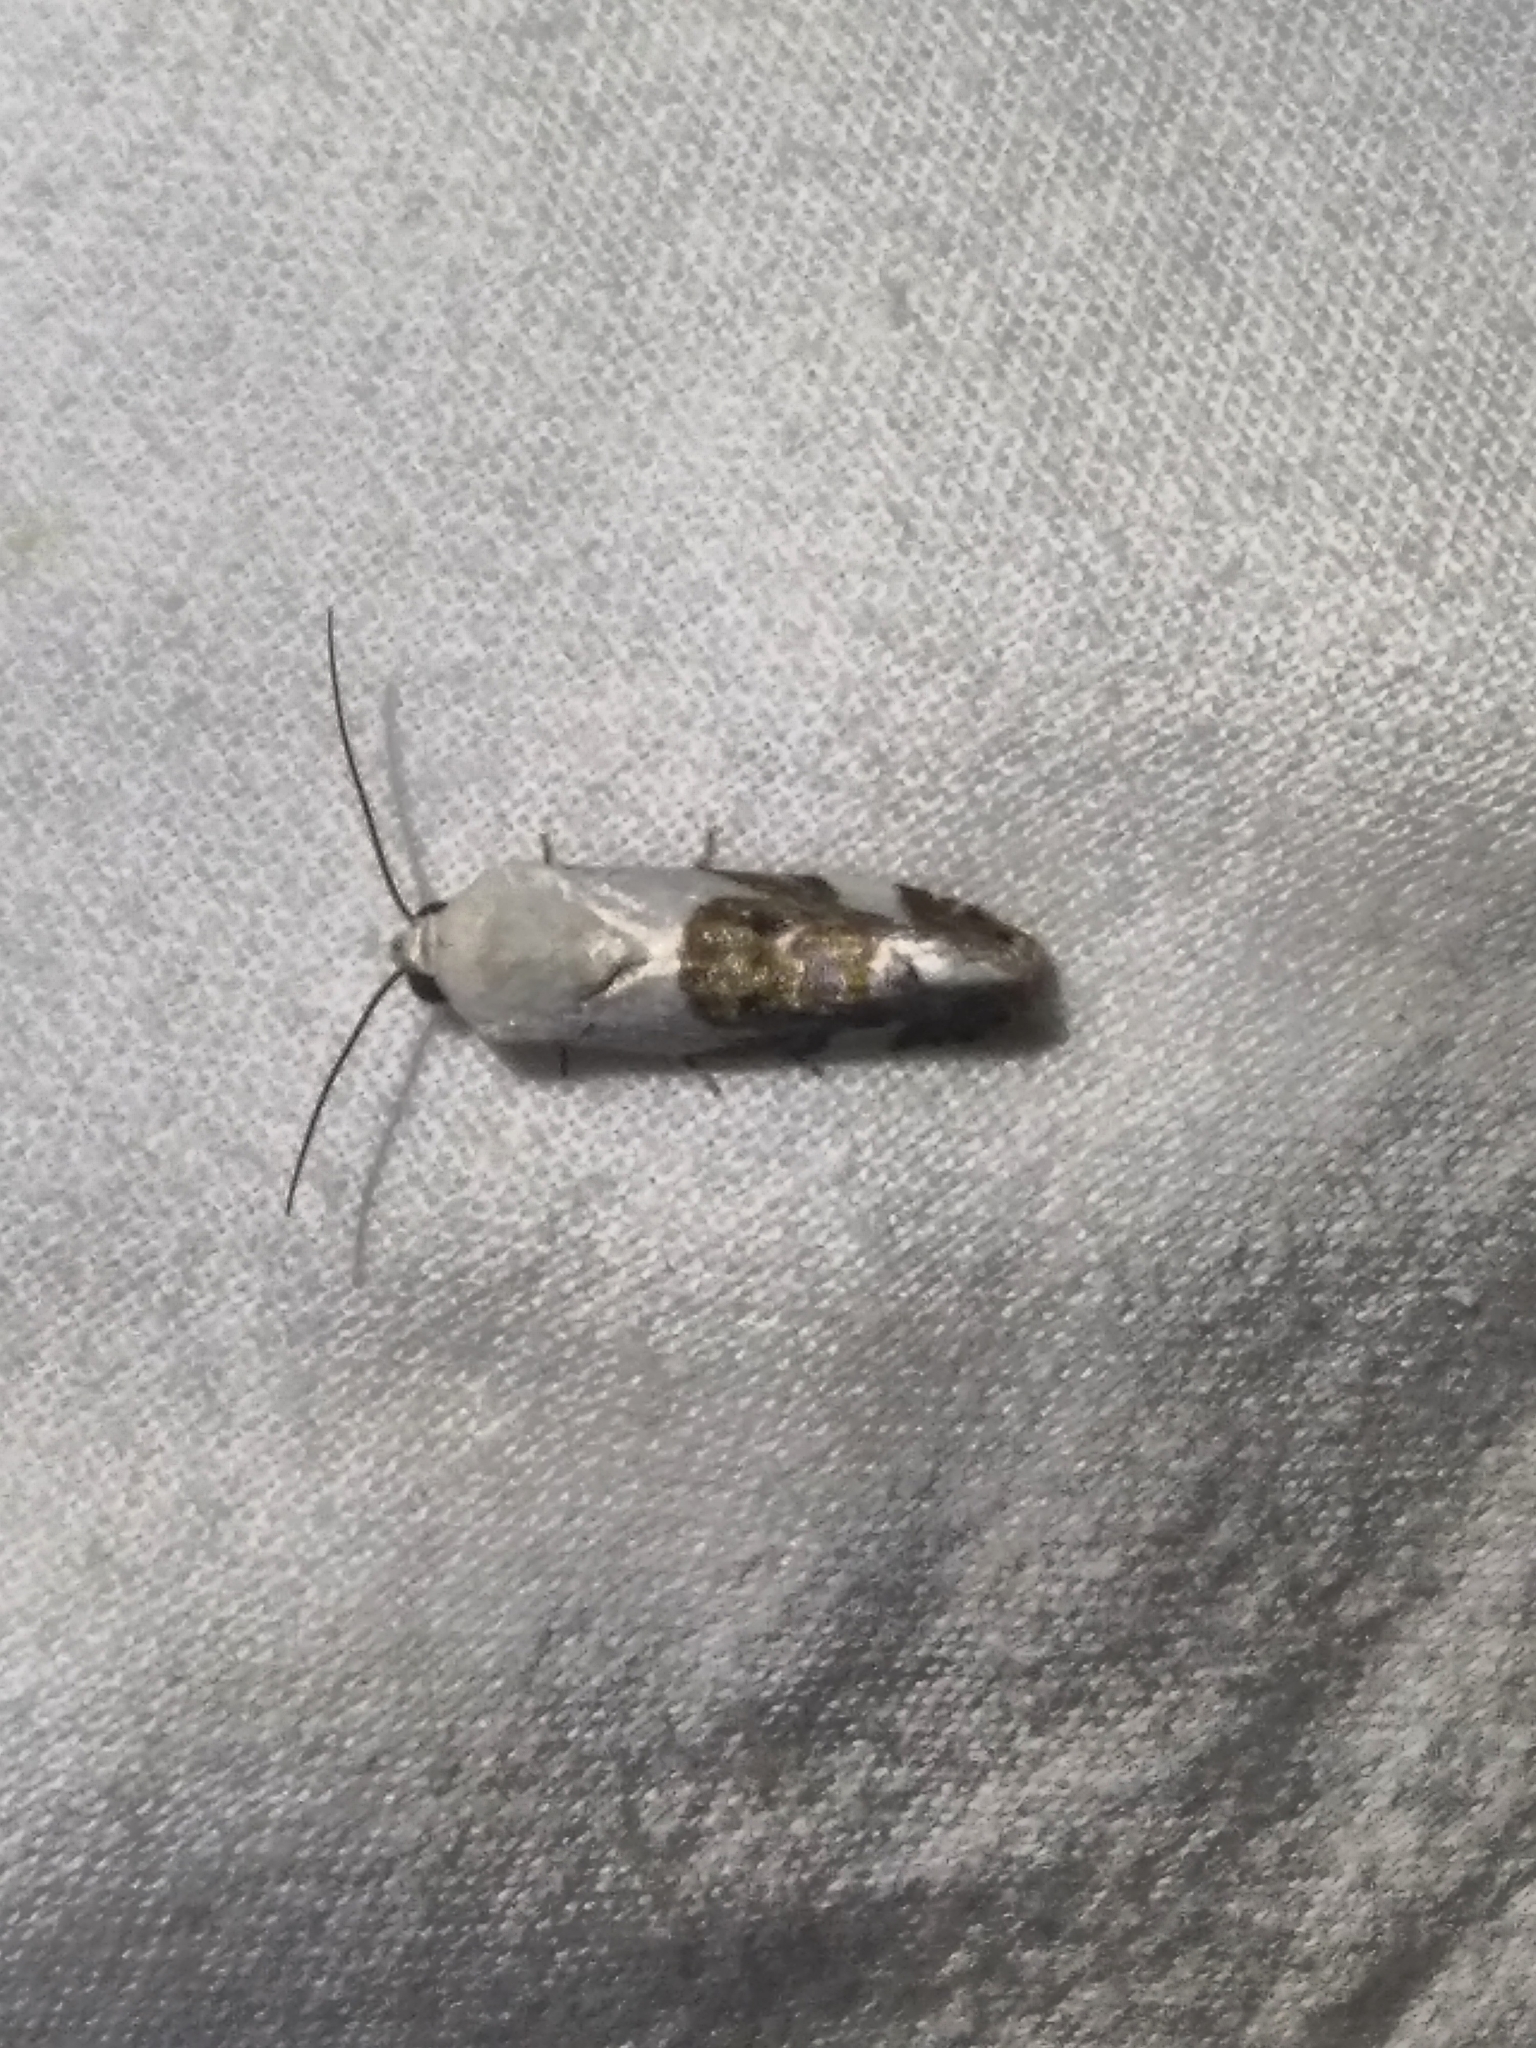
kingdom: Animalia
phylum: Arthropoda
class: Insecta
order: Lepidoptera
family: Noctuidae
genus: Acontia
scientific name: Acontia lucida
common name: Pale shoulder
